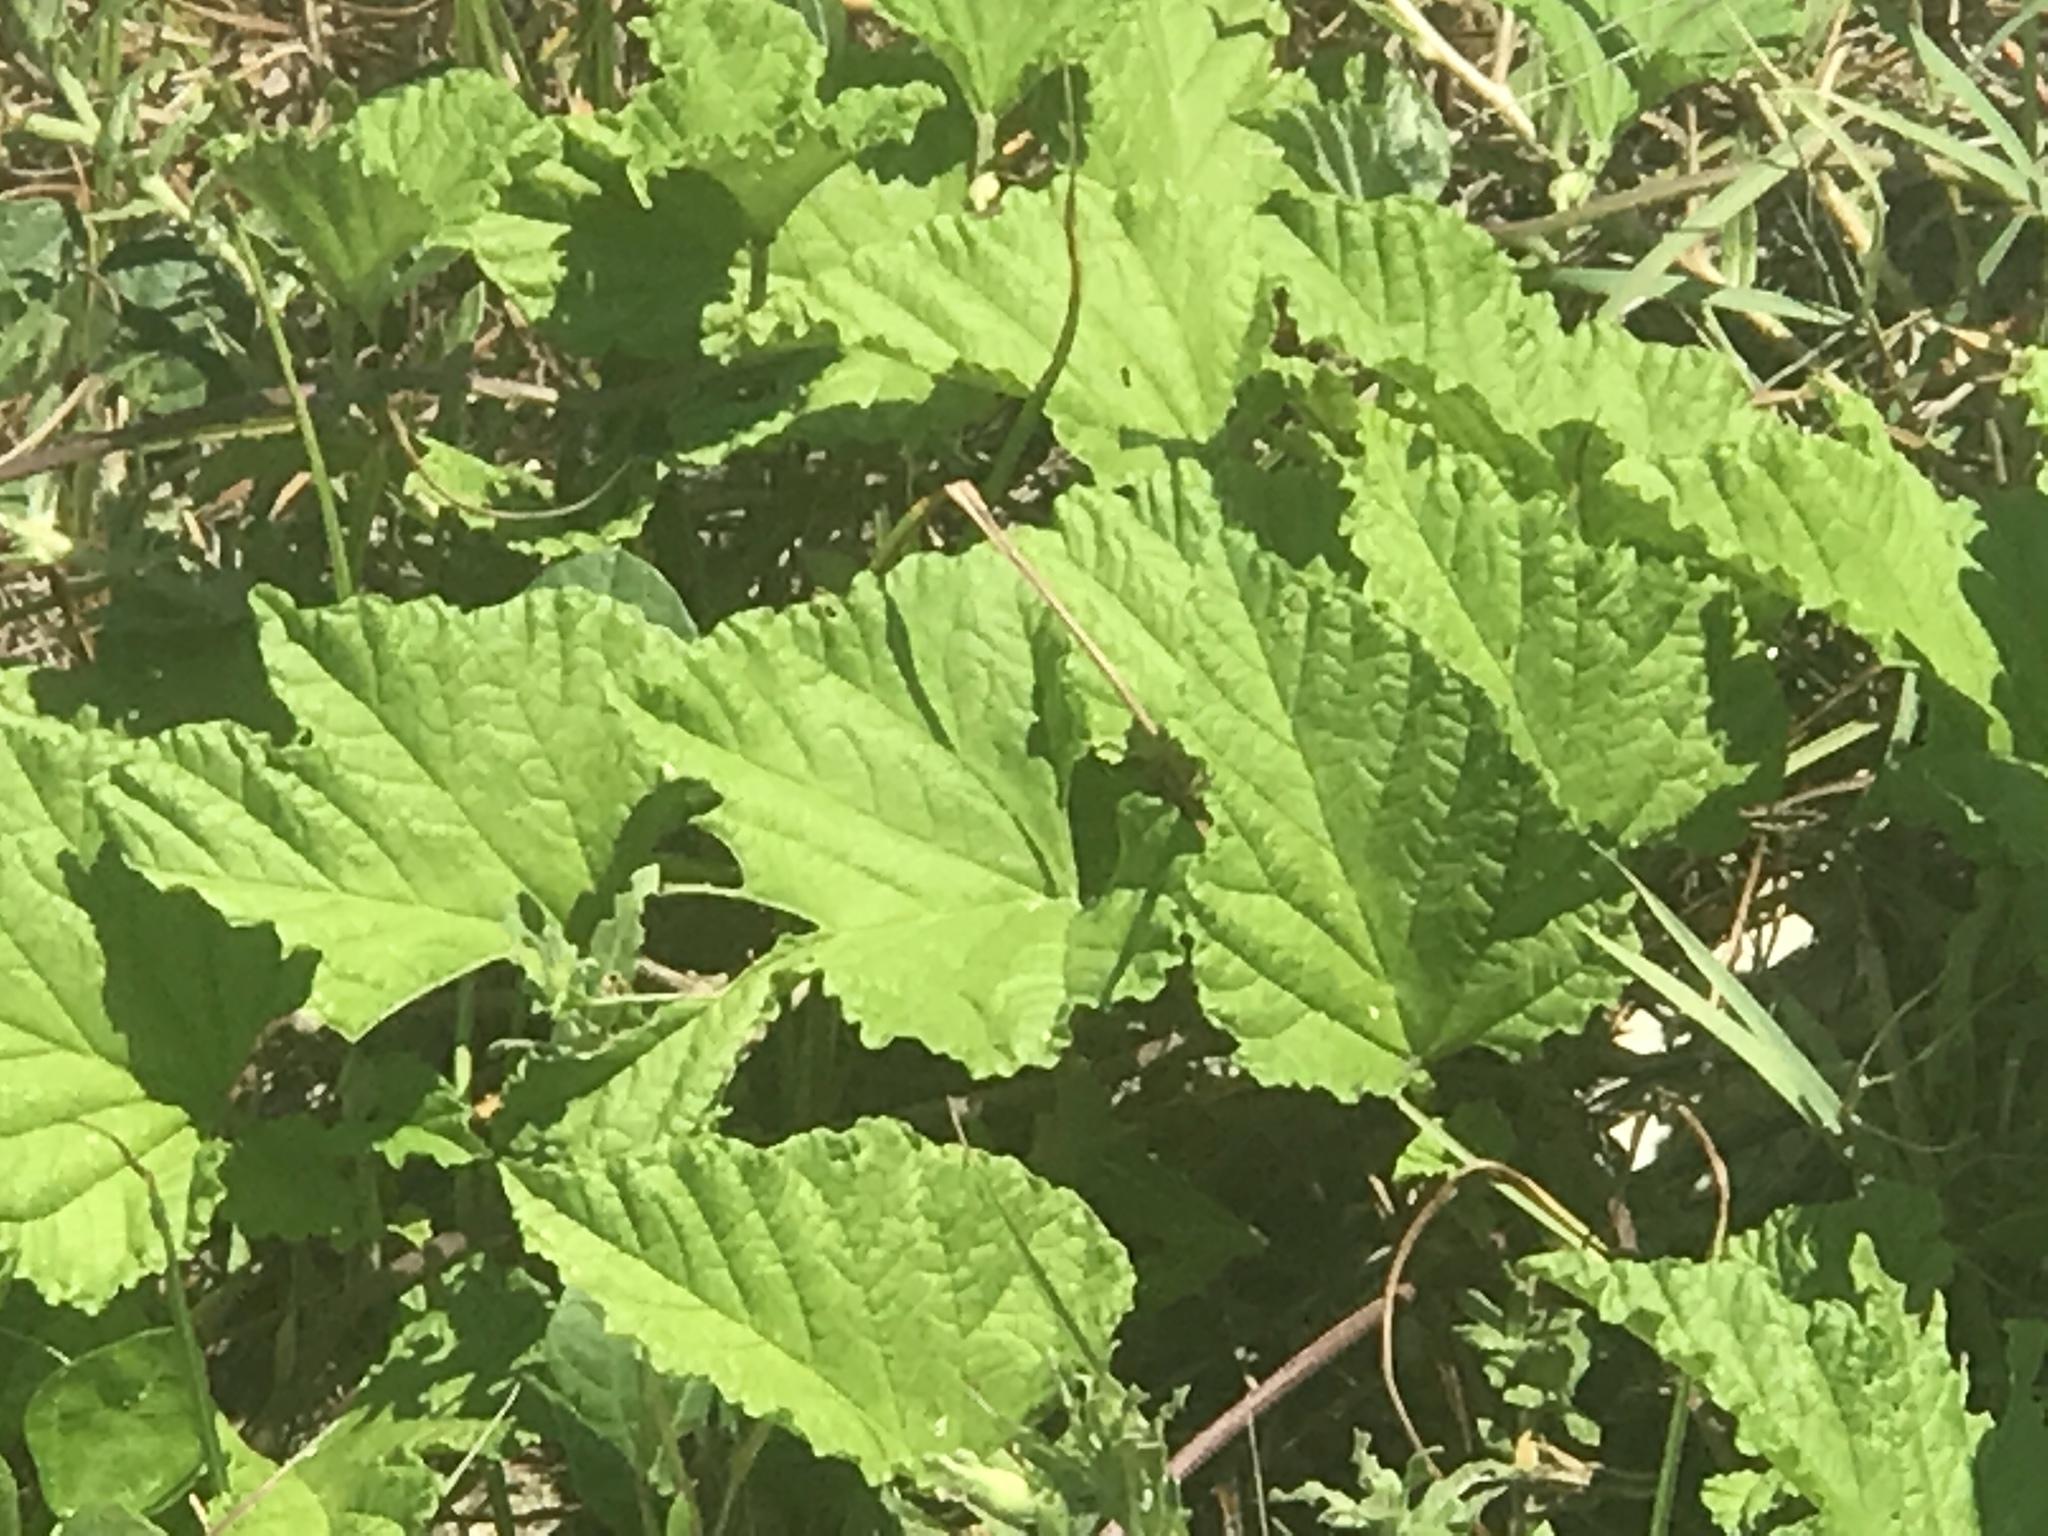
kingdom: Plantae
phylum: Tracheophyta
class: Magnoliopsida
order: Solanales
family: Convolvulaceae
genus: Ipomoea
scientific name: Ipomoea macrorhiza
